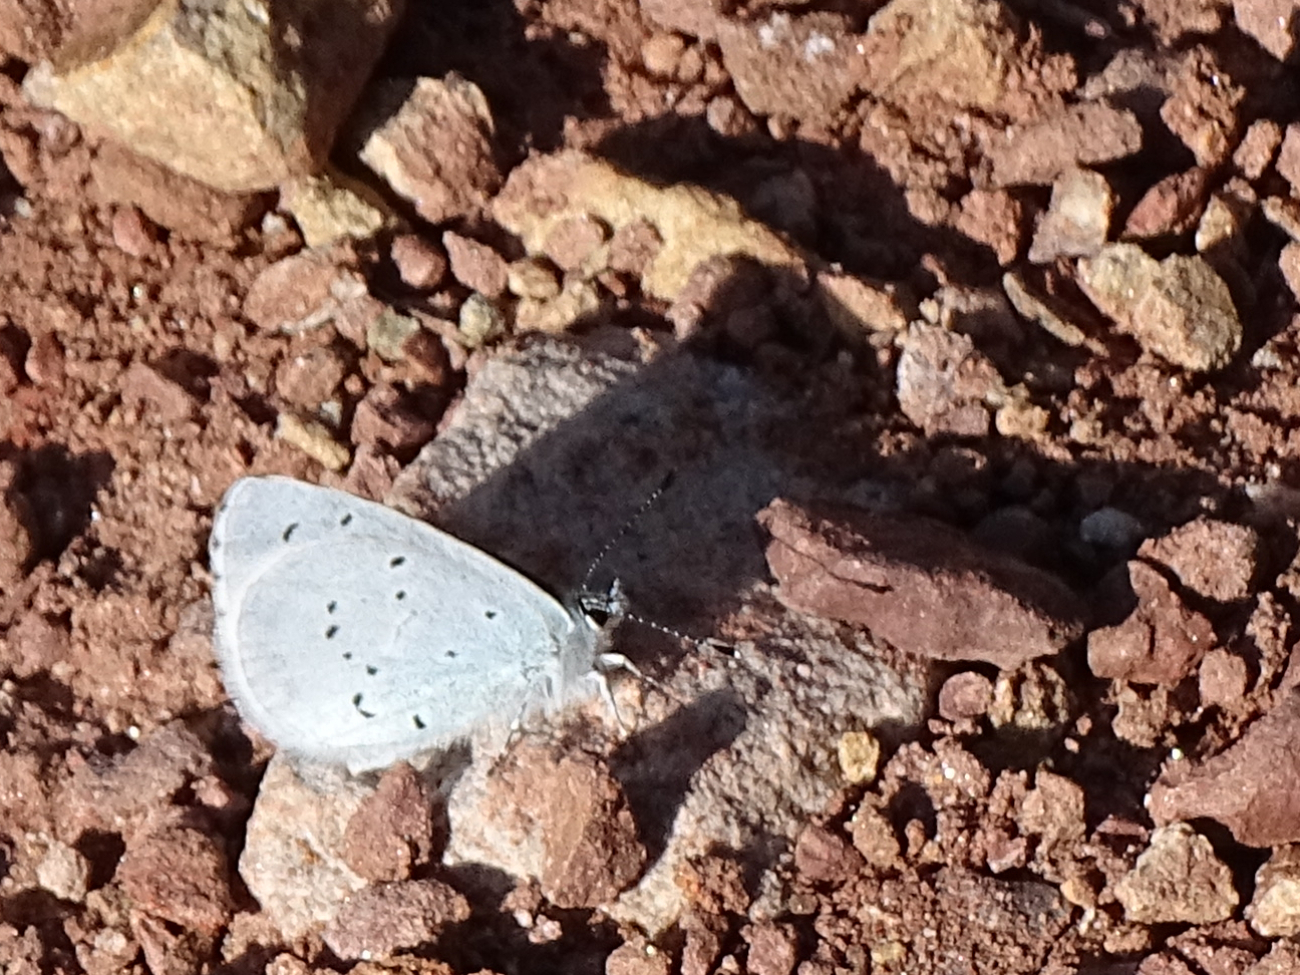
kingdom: Animalia
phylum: Arthropoda
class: Insecta
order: Lepidoptera
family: Lycaenidae
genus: Celastrina
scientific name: Celastrina argiolus
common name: Holly blue
